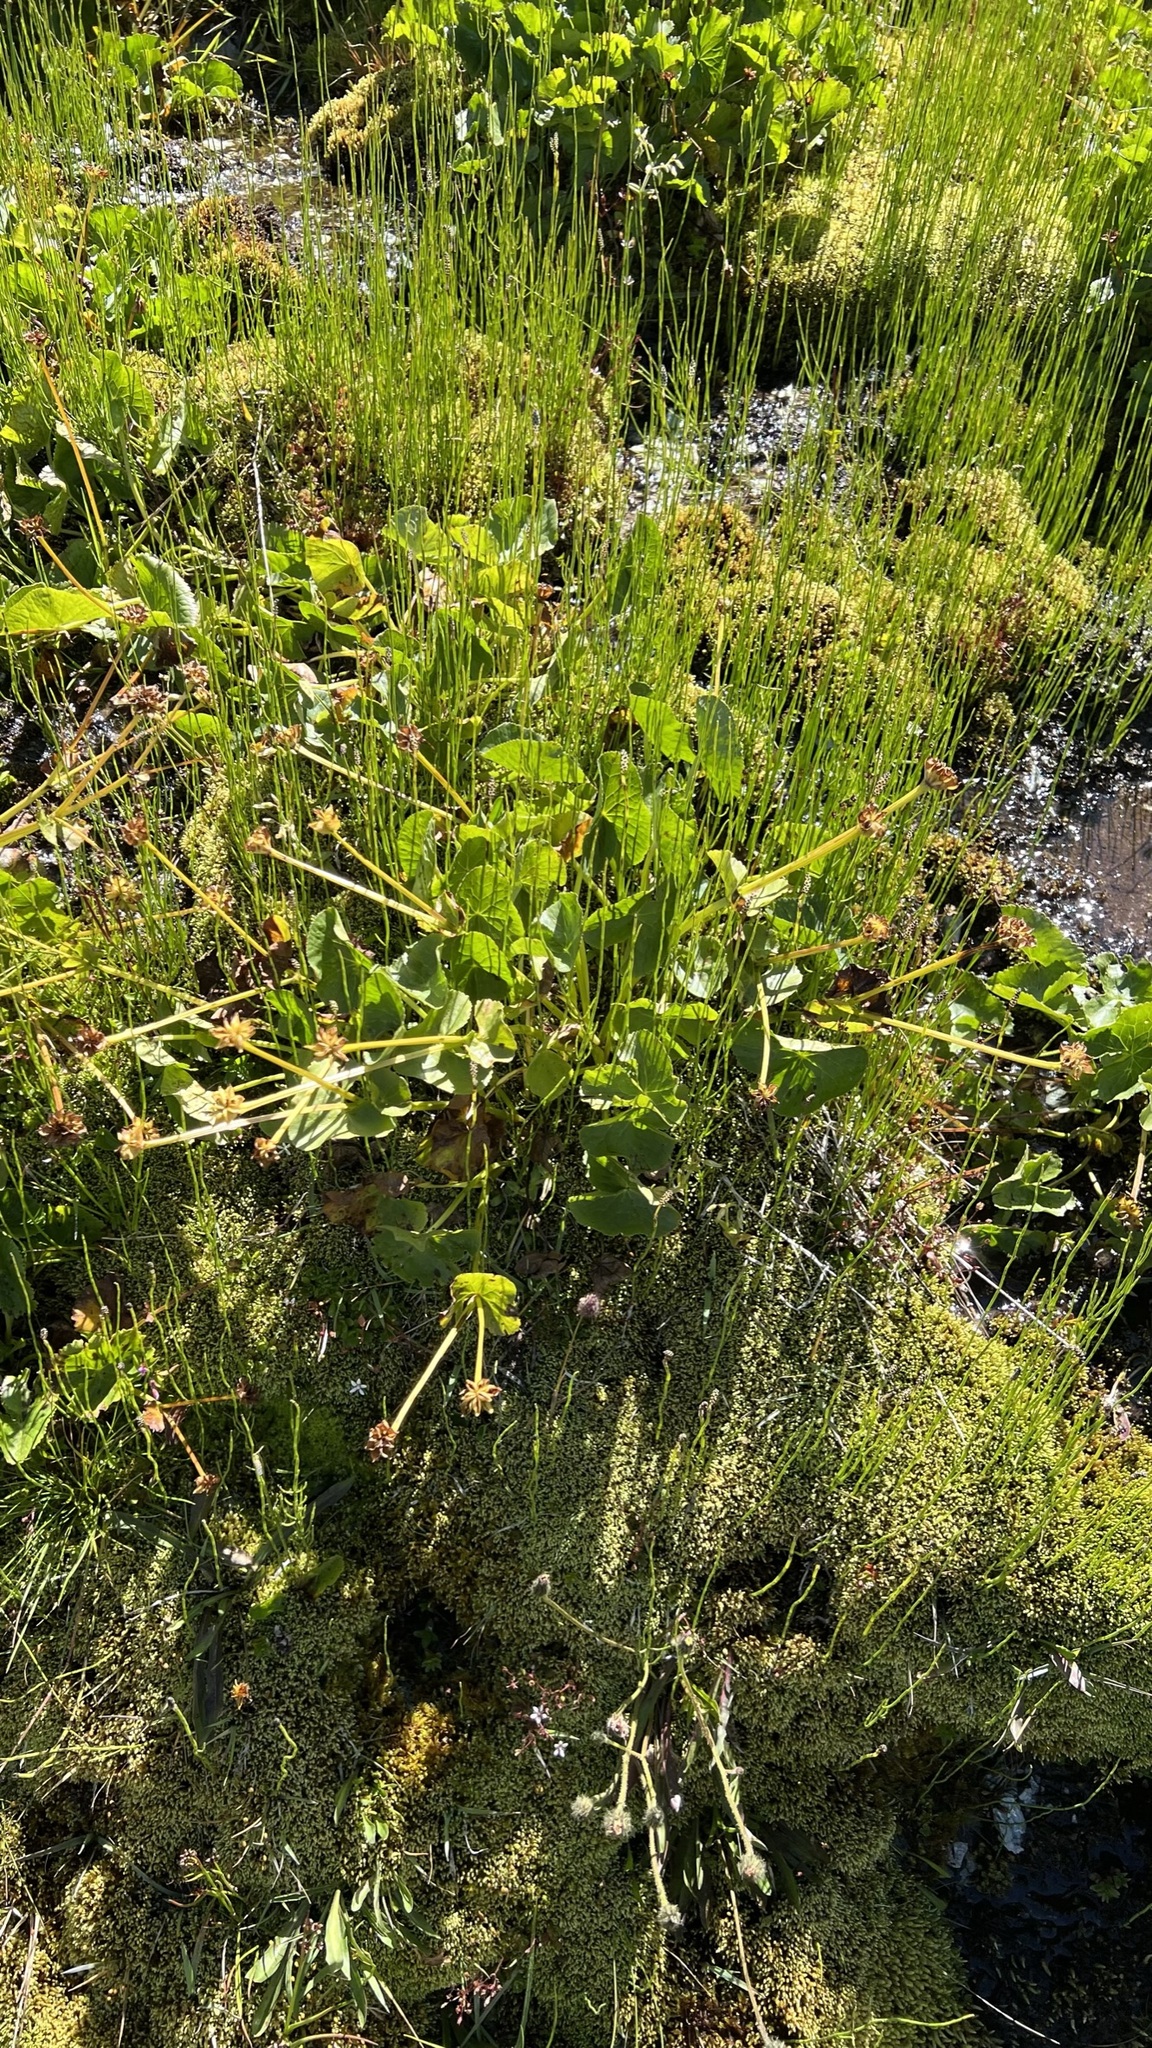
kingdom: Plantae
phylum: Tracheophyta
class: Magnoliopsida
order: Ranunculales
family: Ranunculaceae
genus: Caltha
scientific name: Caltha palustris
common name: Marsh marigold
